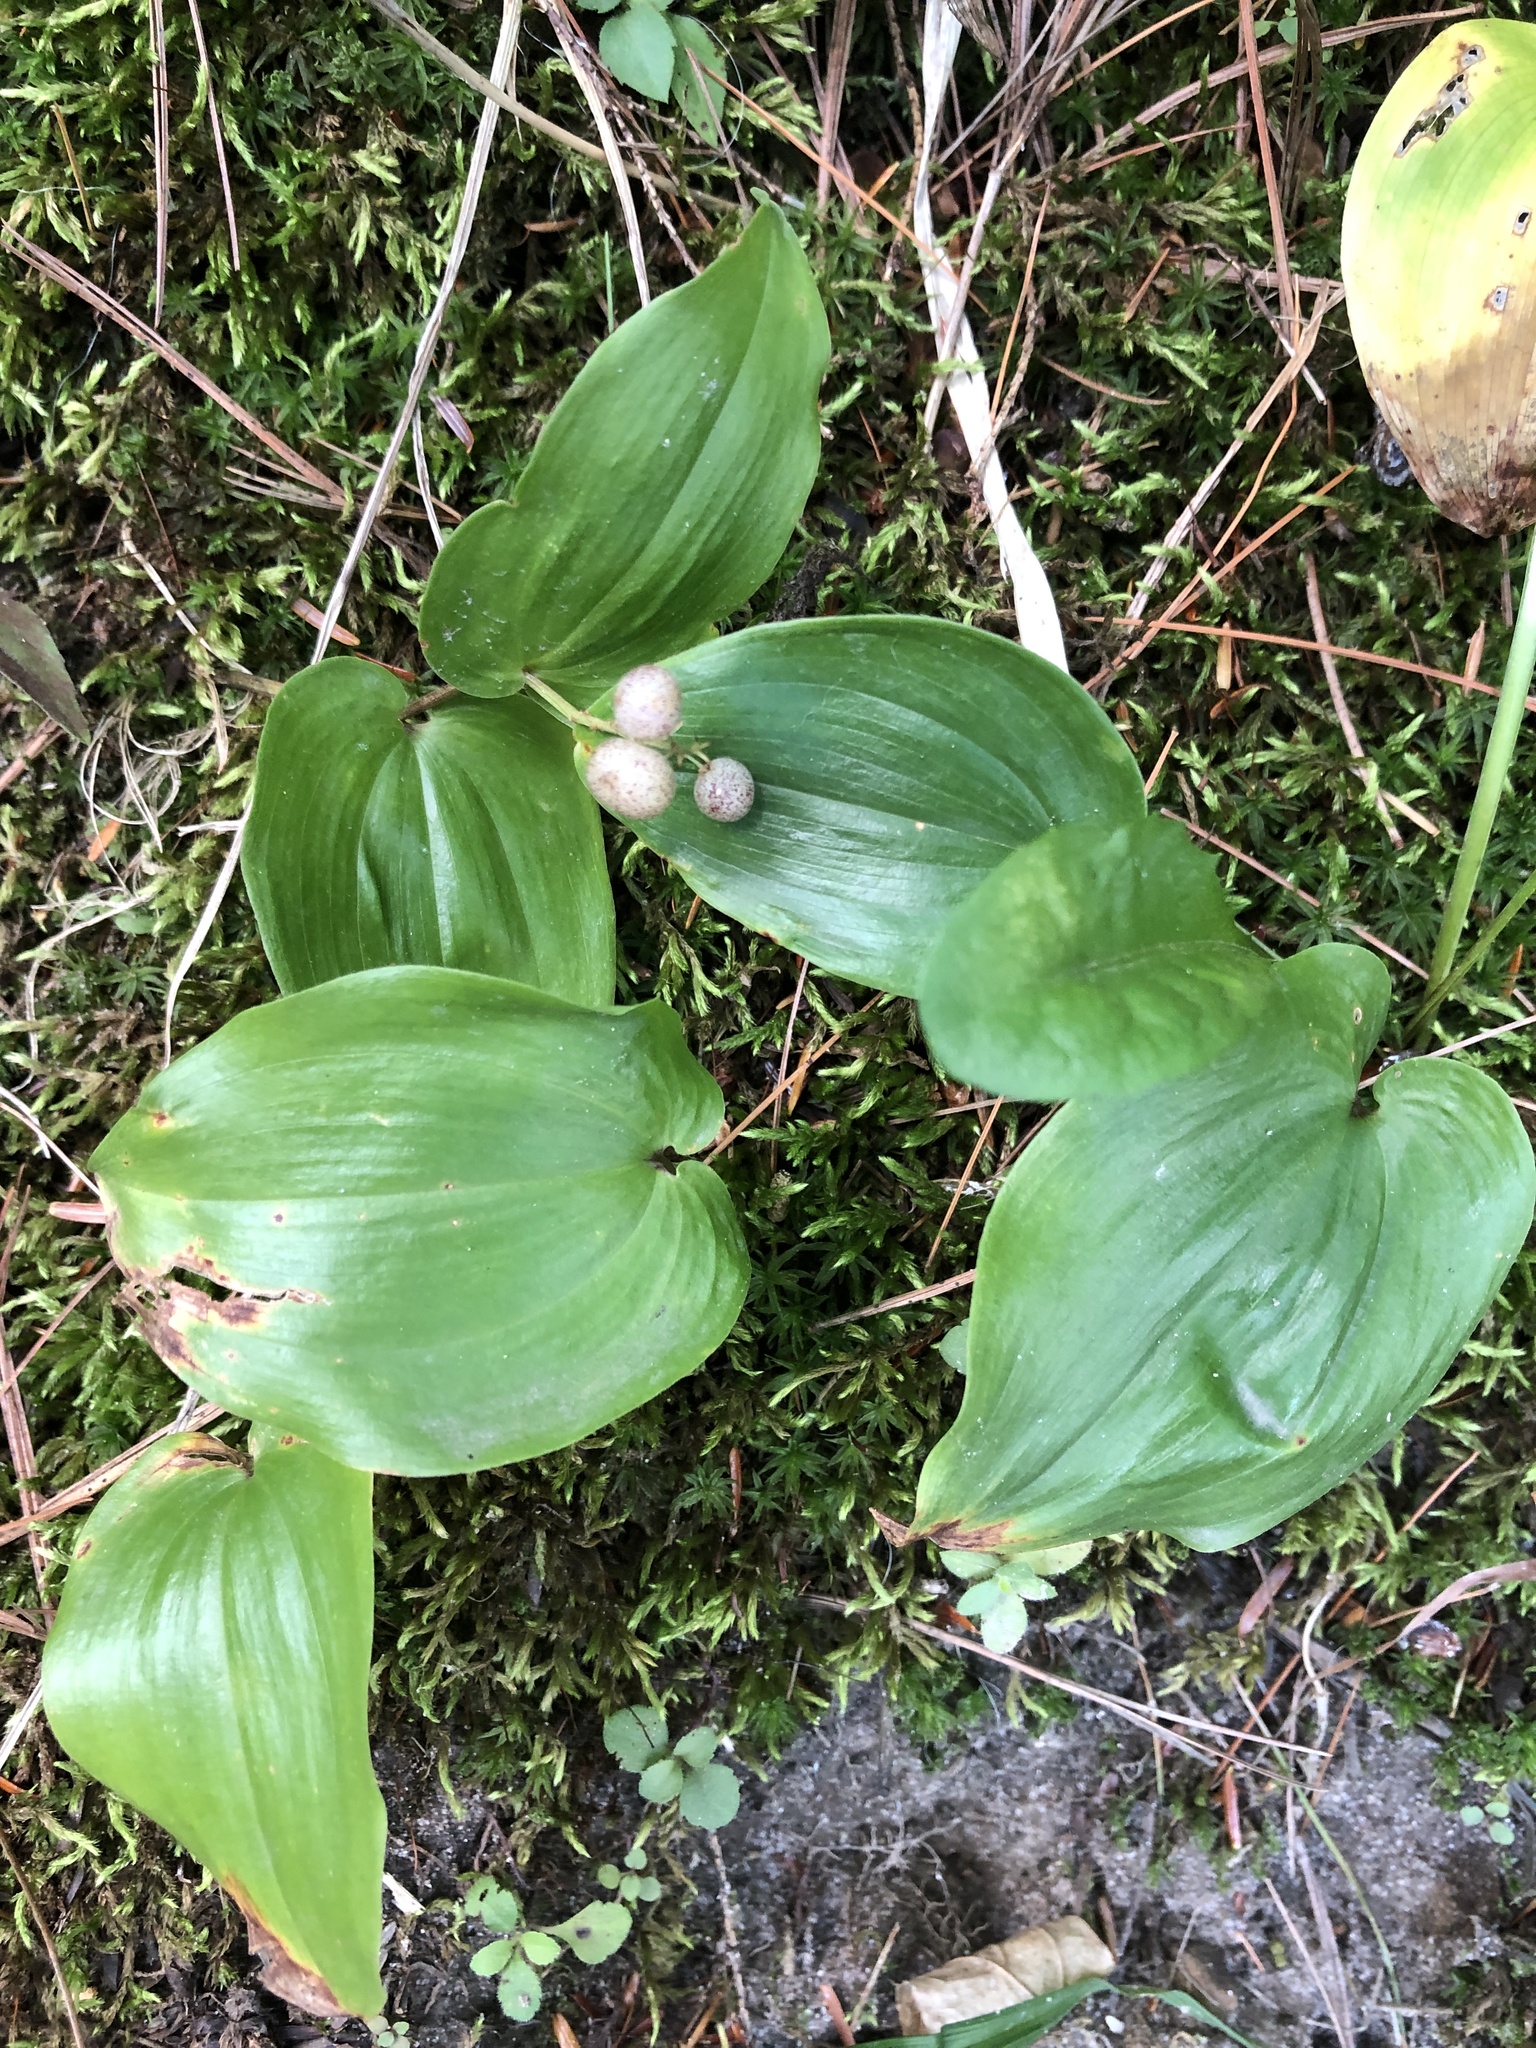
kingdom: Plantae
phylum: Tracheophyta
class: Liliopsida
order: Asparagales
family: Asparagaceae
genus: Maianthemum
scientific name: Maianthemum canadense
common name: False lily-of-the-valley
